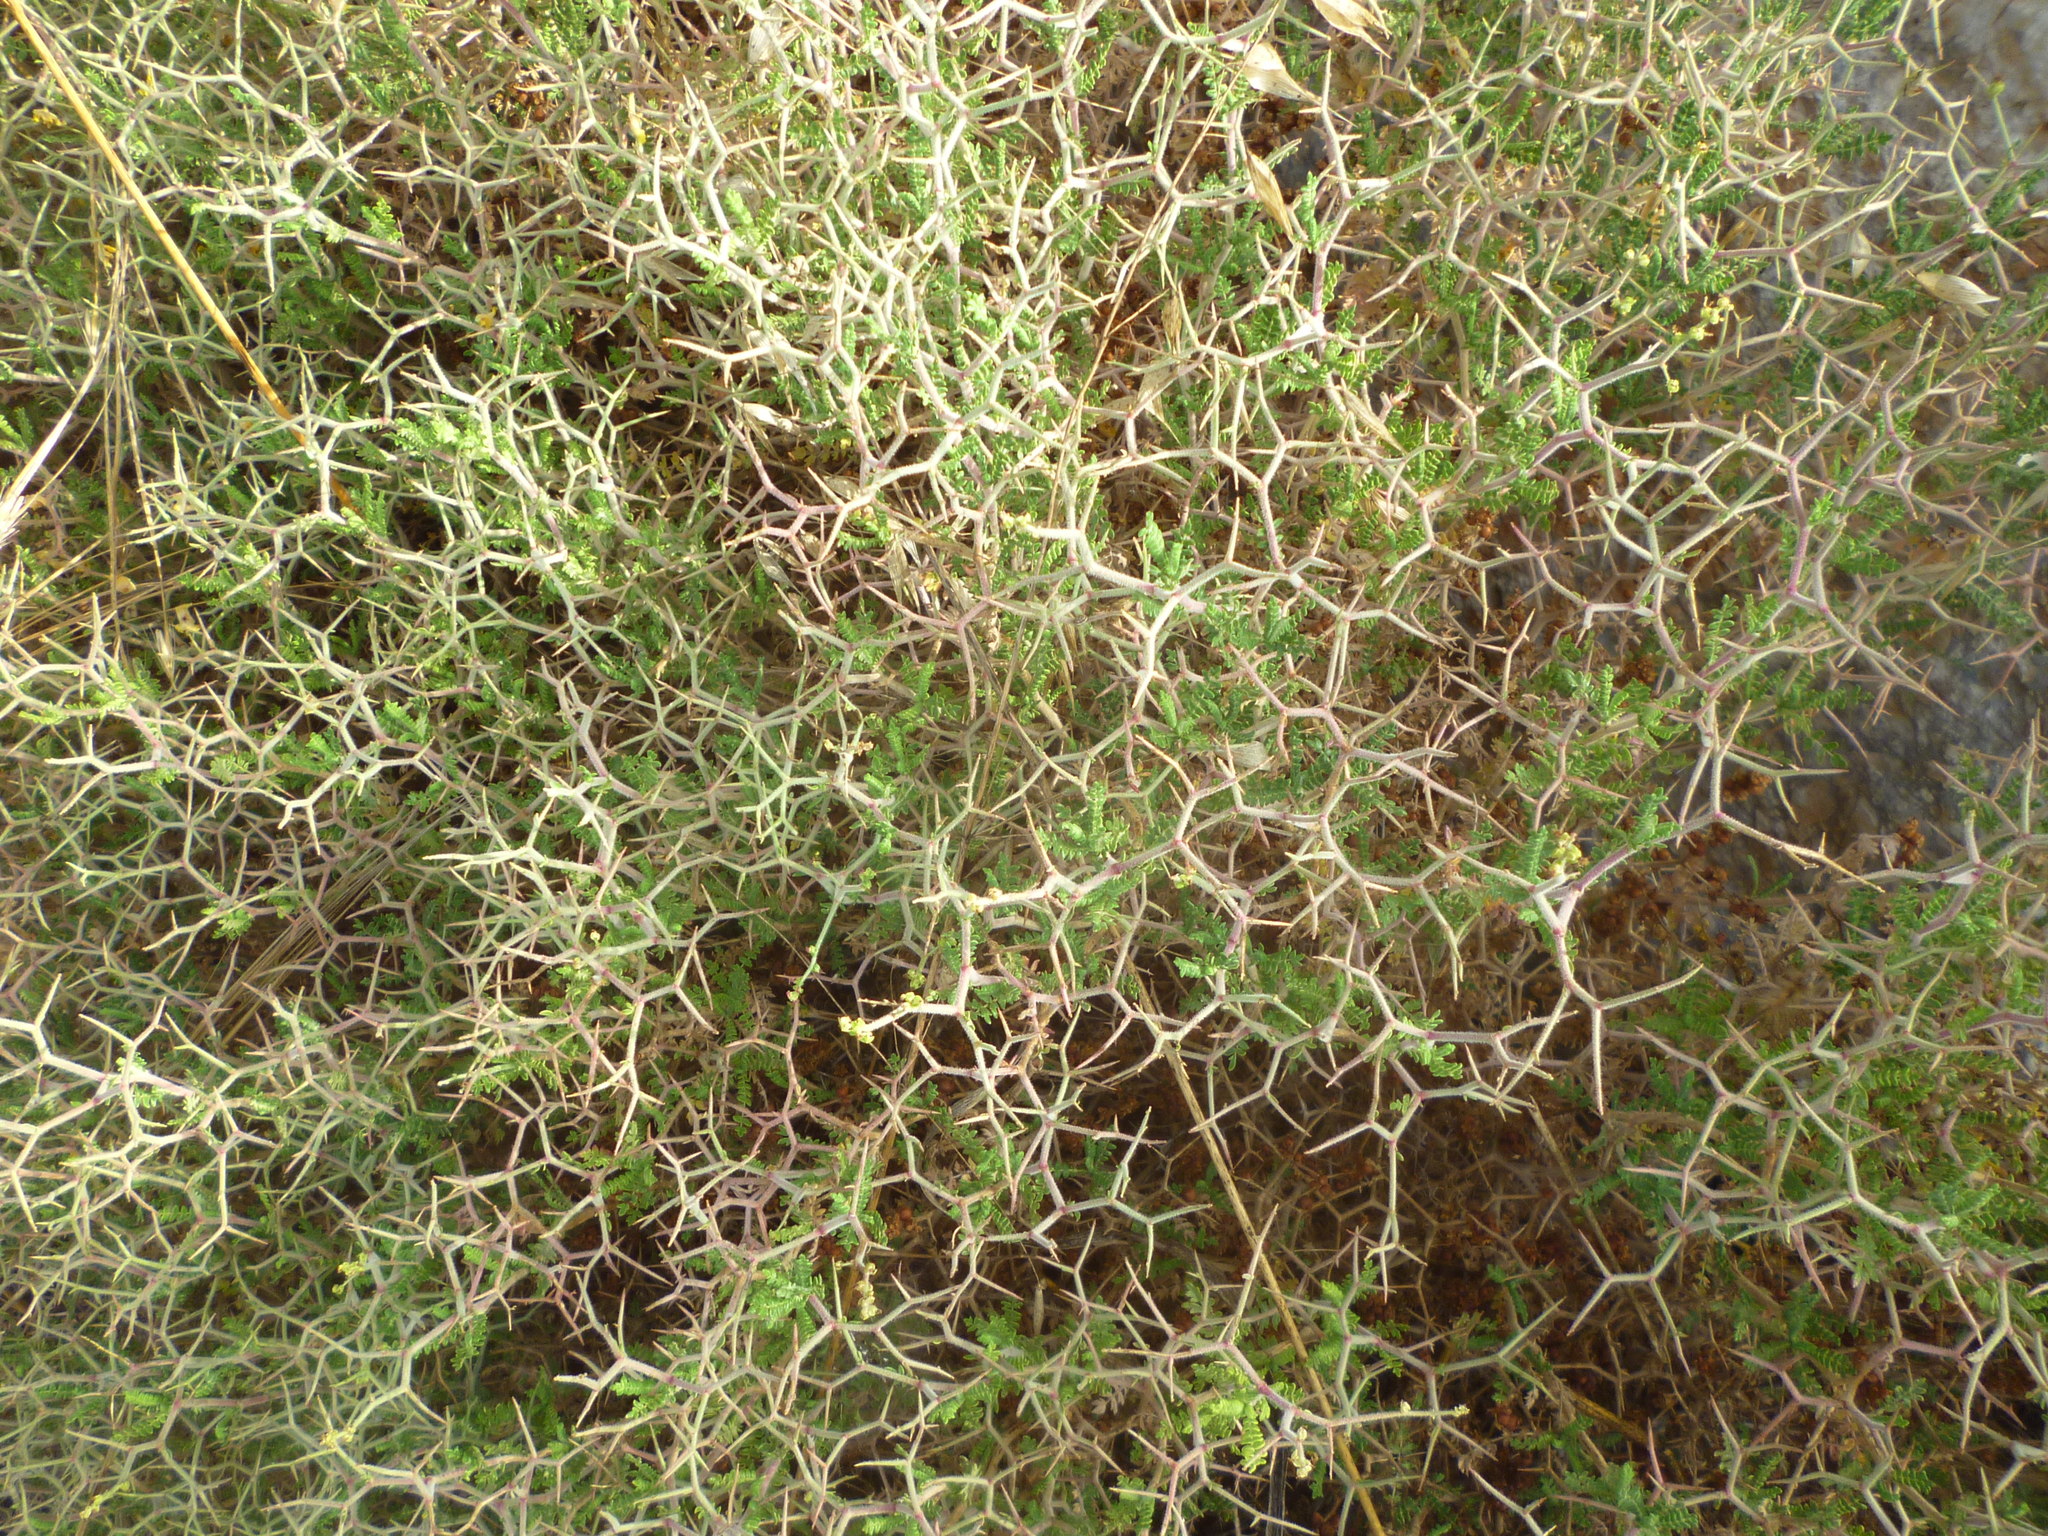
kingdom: Plantae
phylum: Tracheophyta
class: Magnoliopsida
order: Rosales
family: Rosaceae
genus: Sarcopoterium
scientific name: Sarcopoterium spinosum
